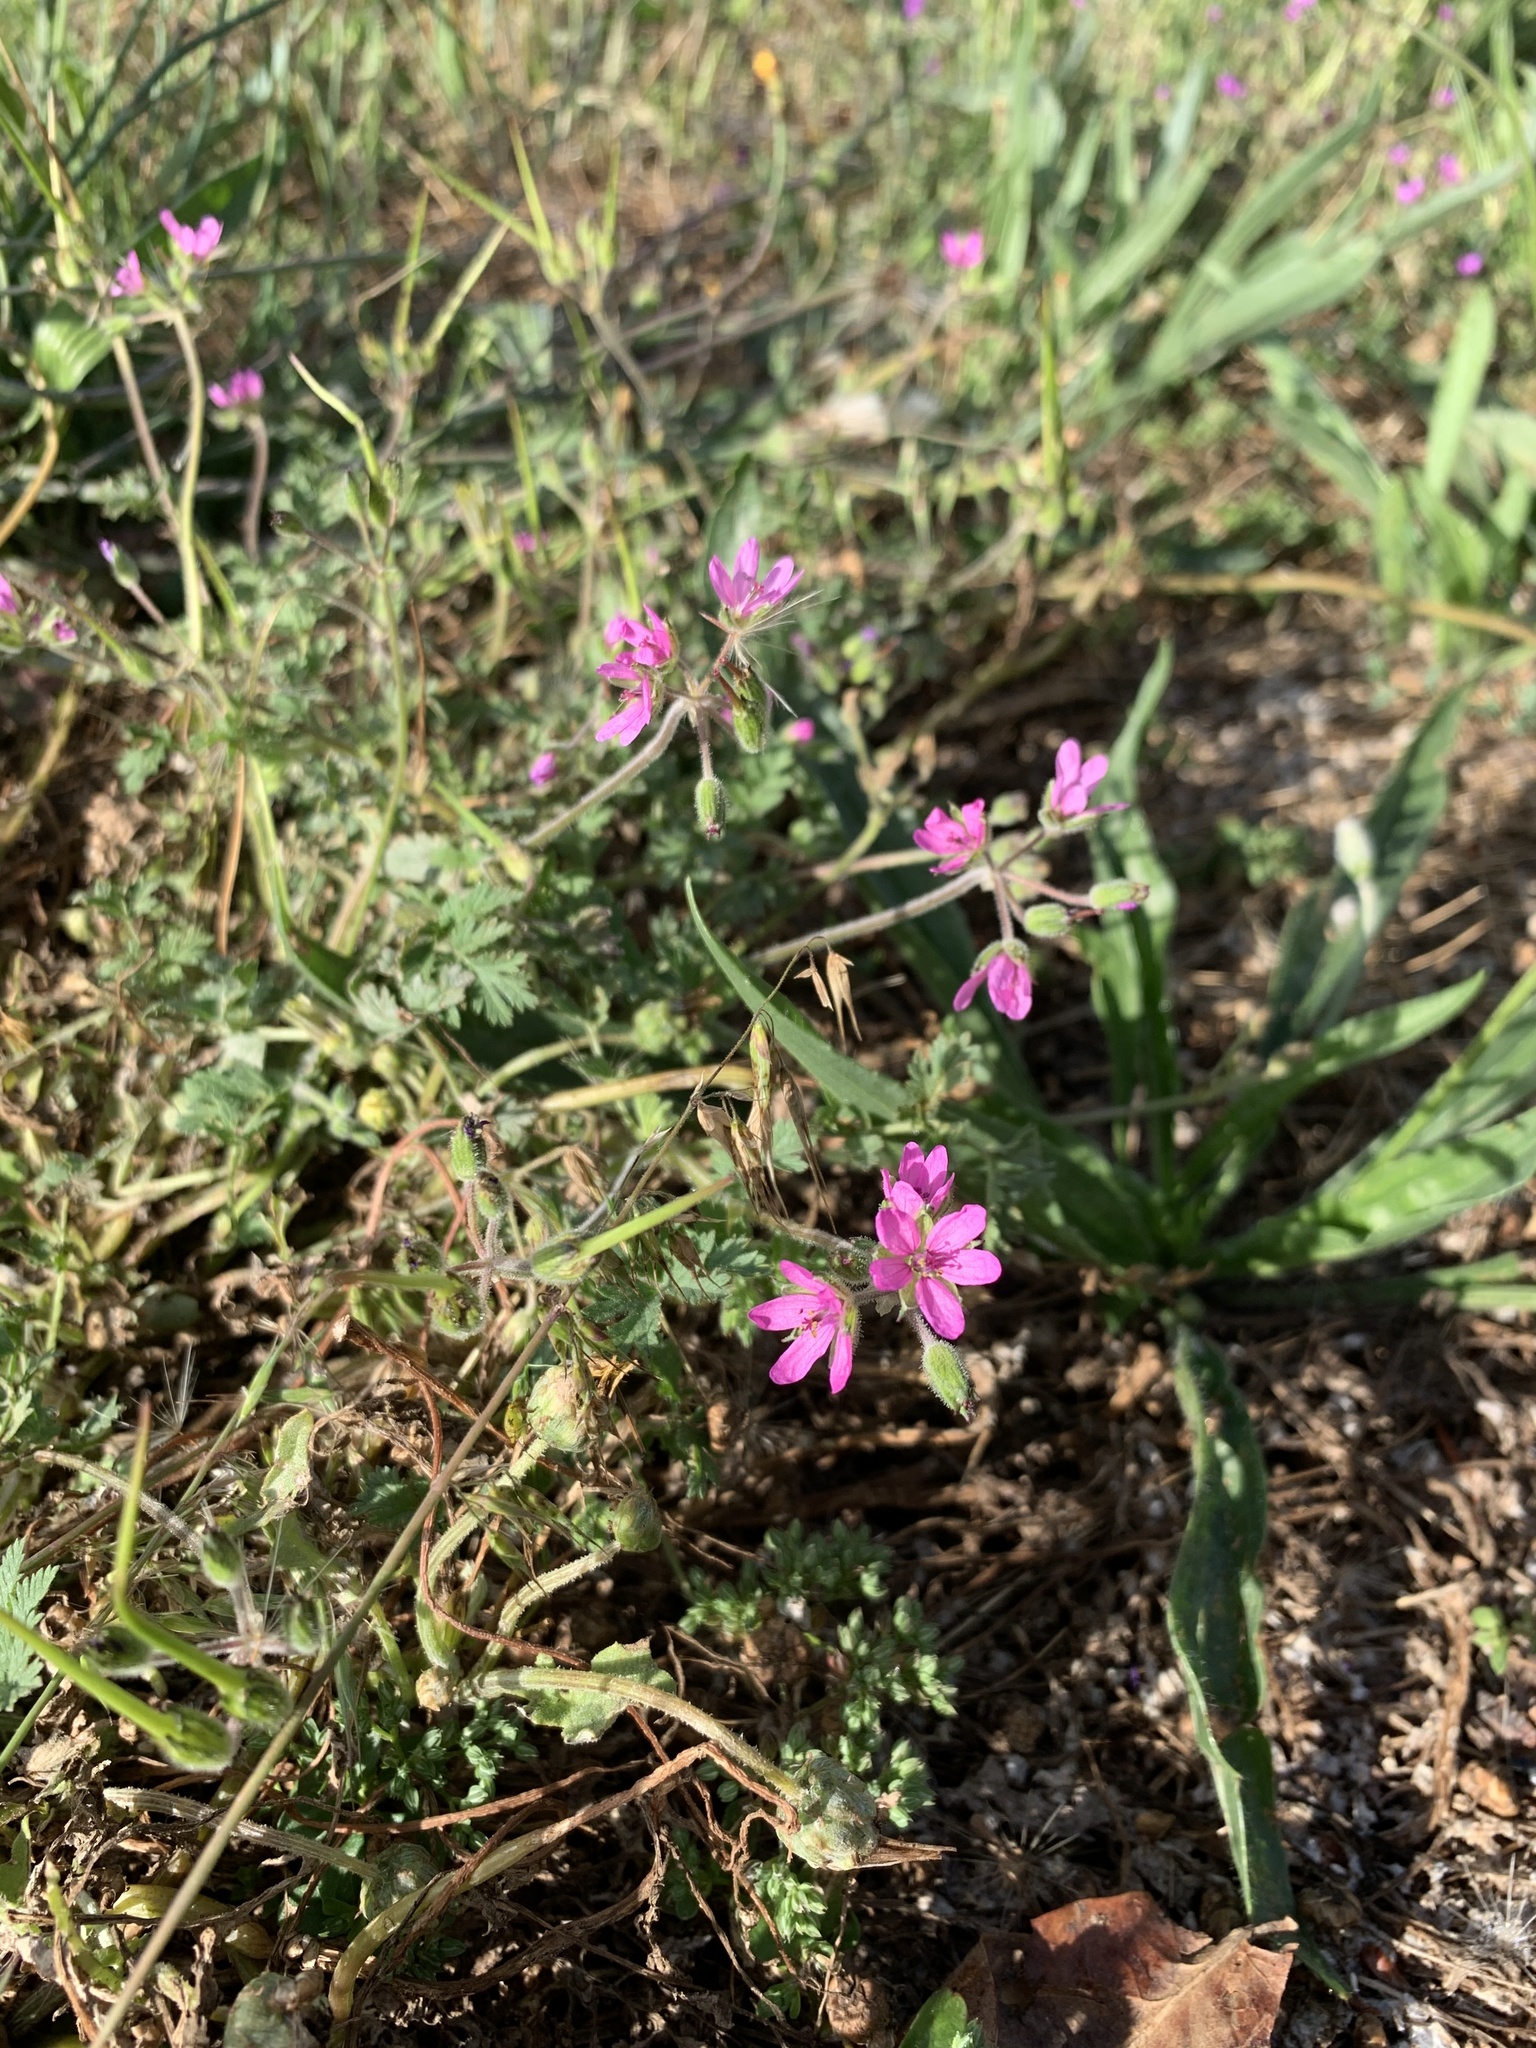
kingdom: Plantae
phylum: Tracheophyta
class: Magnoliopsida
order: Geraniales
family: Geraniaceae
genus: Erodium
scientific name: Erodium moschatum
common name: Musk stork's-bill
